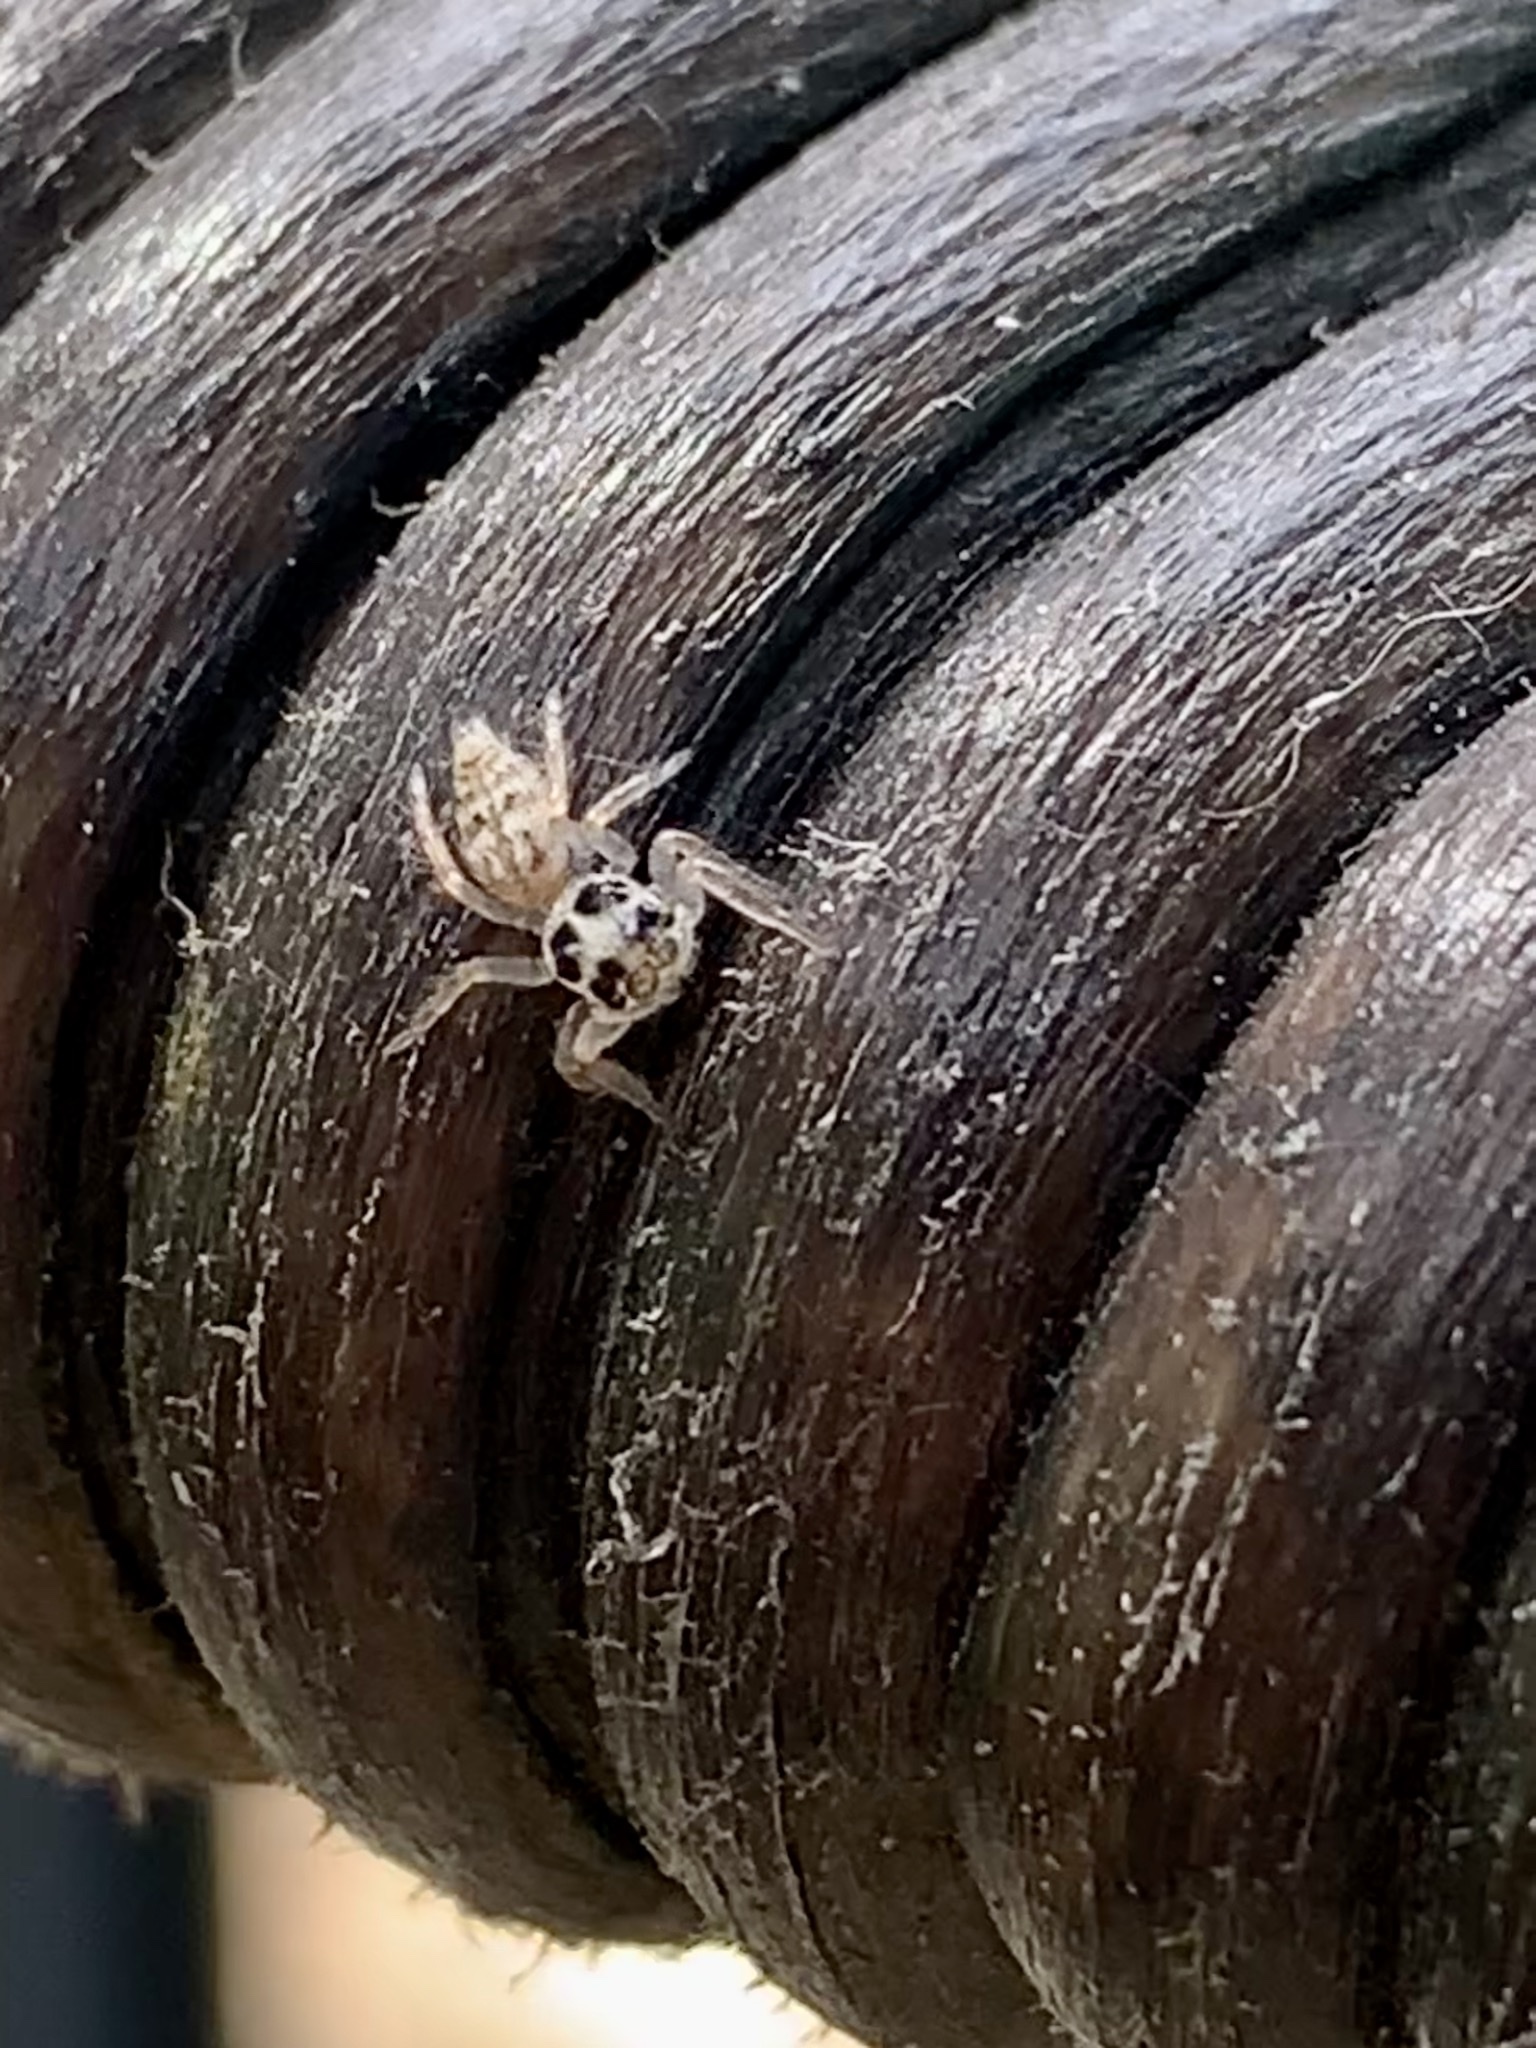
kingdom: Animalia
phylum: Arthropoda
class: Arachnida
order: Araneae
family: Salticidae
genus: Colonus
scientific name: Colonus hesperus
